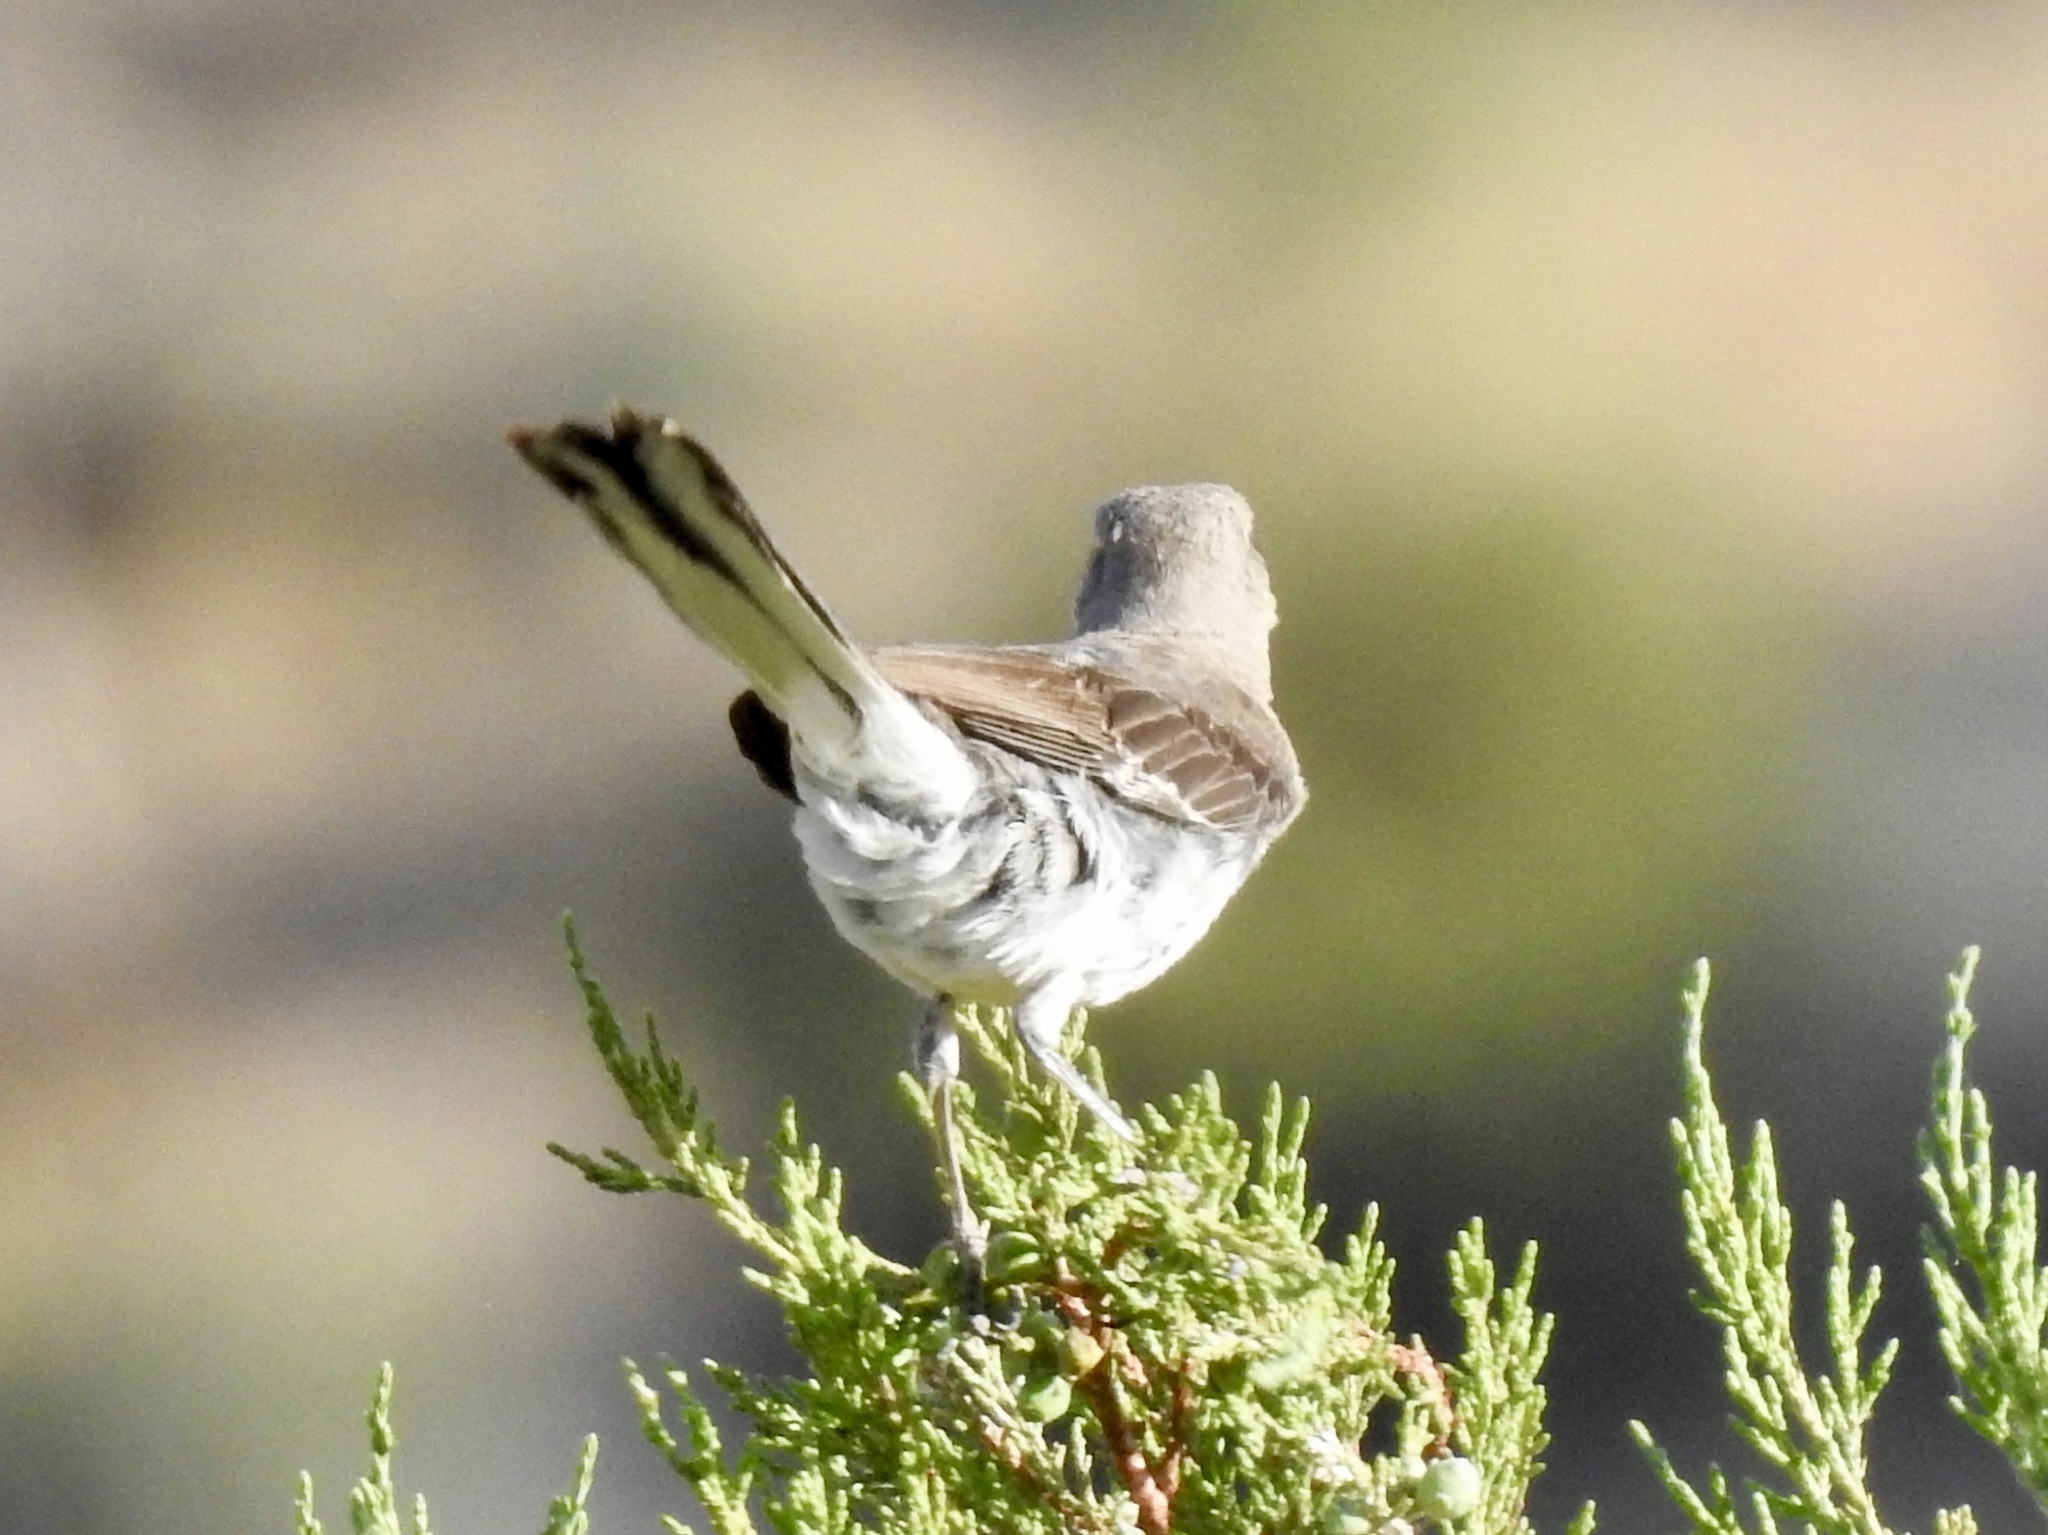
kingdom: Animalia
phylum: Chordata
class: Aves
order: Passeriformes
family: Mimidae
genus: Mimus
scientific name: Mimus polyglottos
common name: Northern mockingbird
